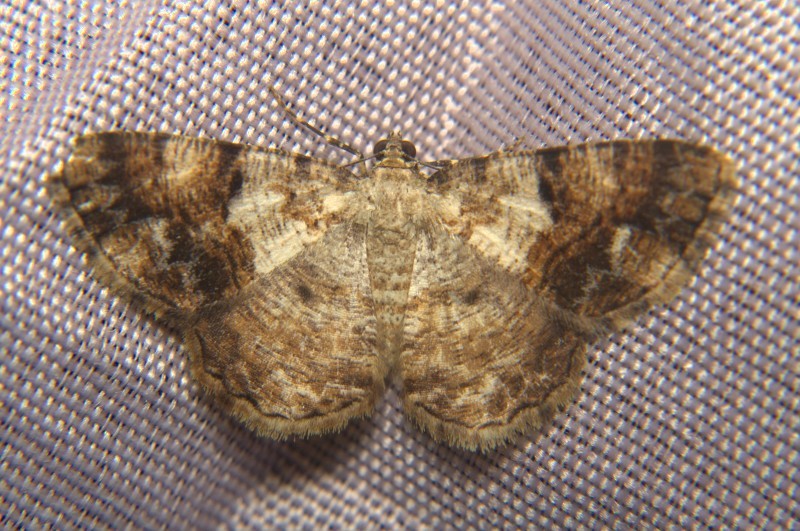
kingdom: Animalia
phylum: Arthropoda
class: Insecta
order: Lepidoptera
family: Geometridae
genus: Myrioblephara
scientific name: Myrioblephara albibasis
